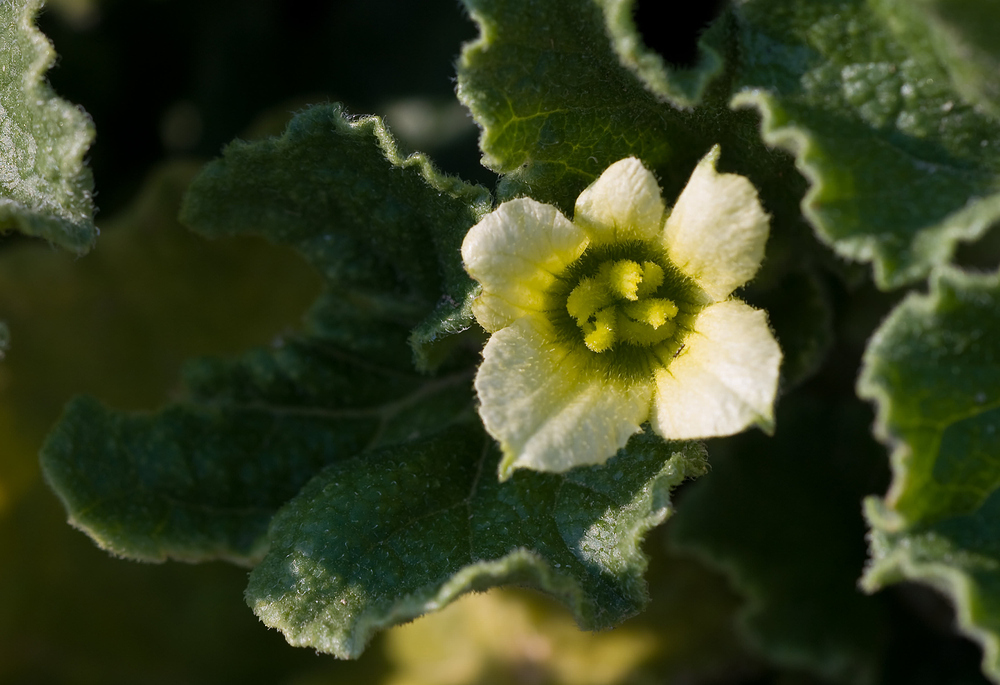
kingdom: Plantae
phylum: Tracheophyta
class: Magnoliopsida
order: Cucurbitales
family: Cucurbitaceae
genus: Ecballium
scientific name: Ecballium elaterium
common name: Squirting cucumber
